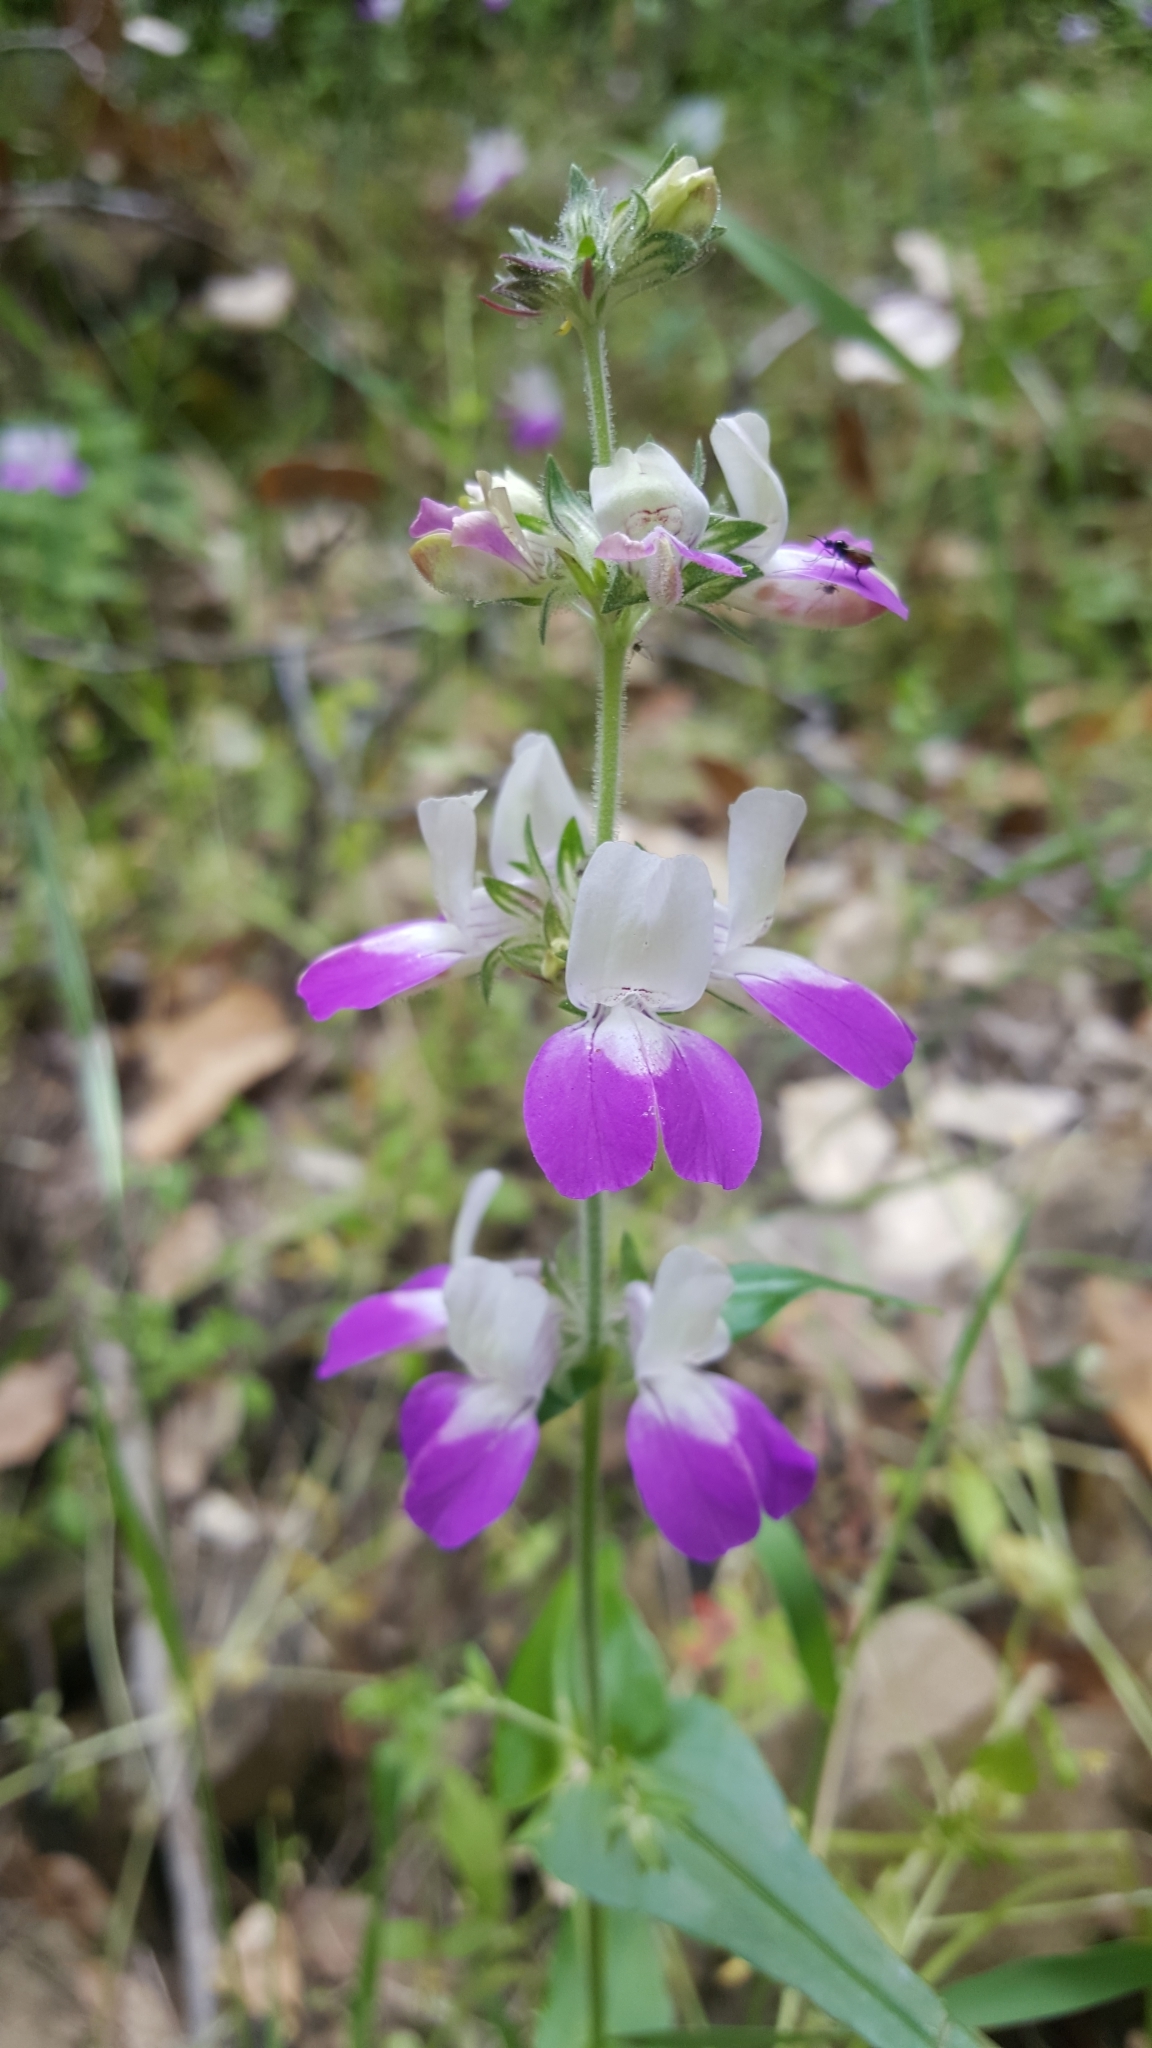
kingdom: Plantae
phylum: Tracheophyta
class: Magnoliopsida
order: Lamiales
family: Plantaginaceae
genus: Collinsia
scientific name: Collinsia heterophylla
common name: Chinese-houses
